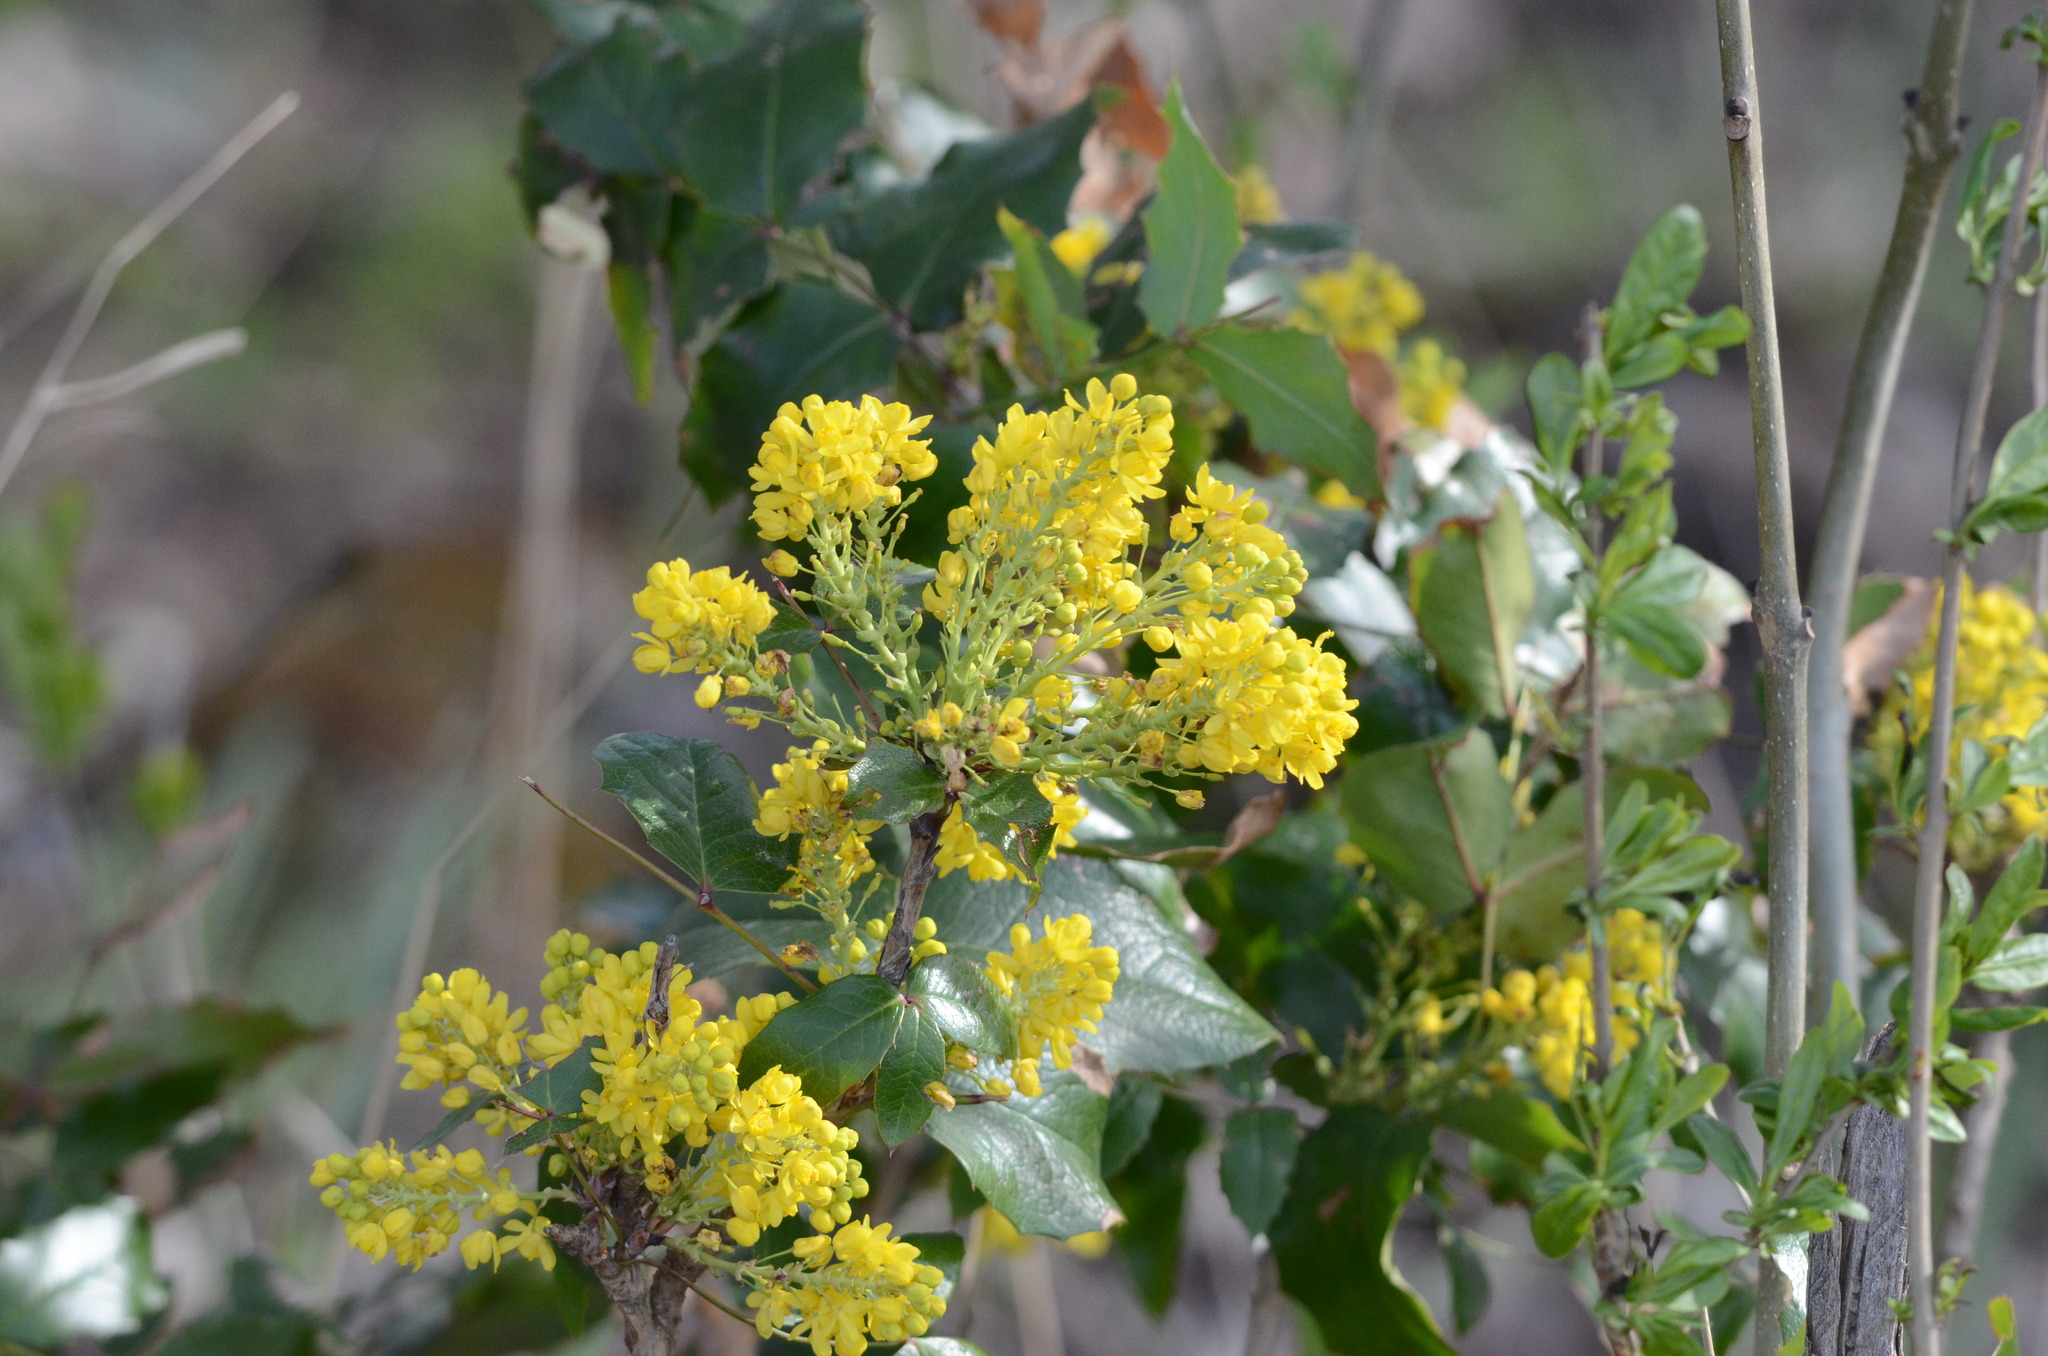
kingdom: Plantae
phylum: Tracheophyta
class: Magnoliopsida
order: Ranunculales
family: Berberidaceae
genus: Mahonia
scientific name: Mahonia aquifolium
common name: Oregon-grape
